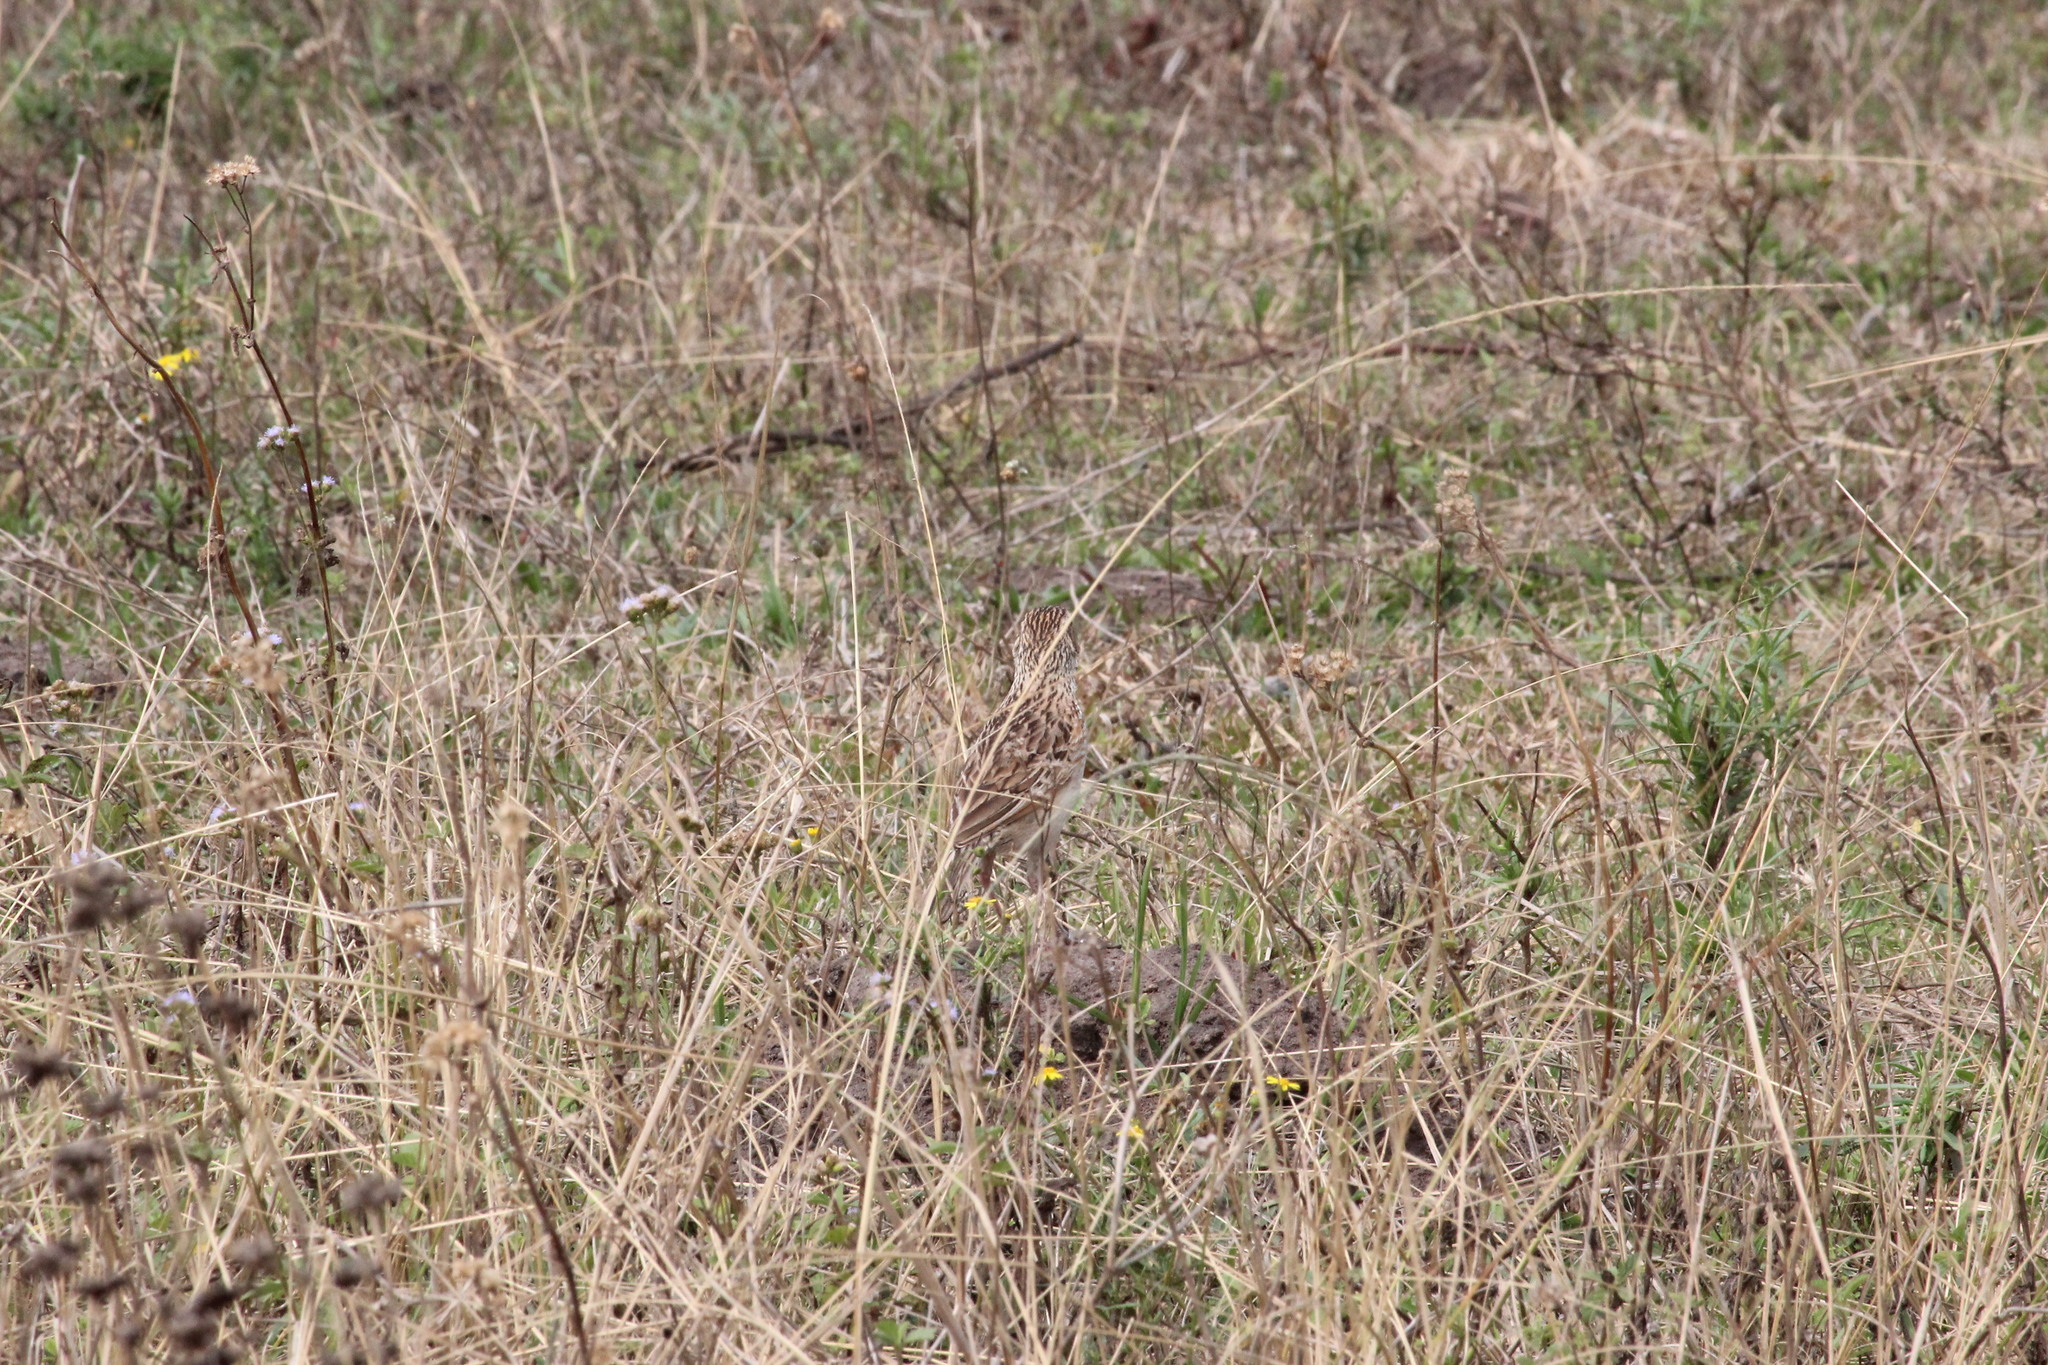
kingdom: Animalia
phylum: Chordata
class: Aves
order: Passeriformes
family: Alaudidae
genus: Mirafra
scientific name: Mirafra africana
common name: Rufous-naped lark
